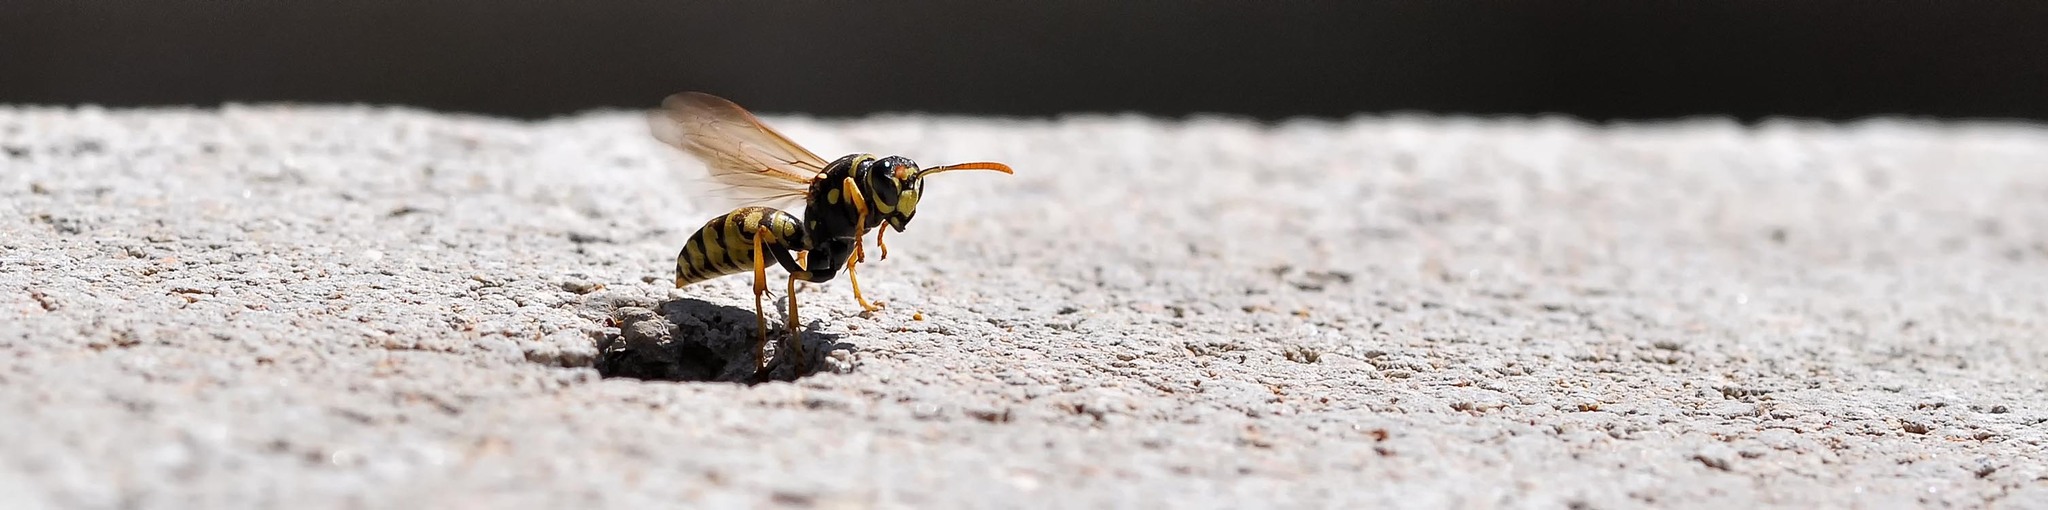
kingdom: Animalia
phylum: Arthropoda
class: Insecta
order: Hymenoptera
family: Eumenidae
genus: Polistes
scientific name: Polistes dominula
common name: Paper wasp
